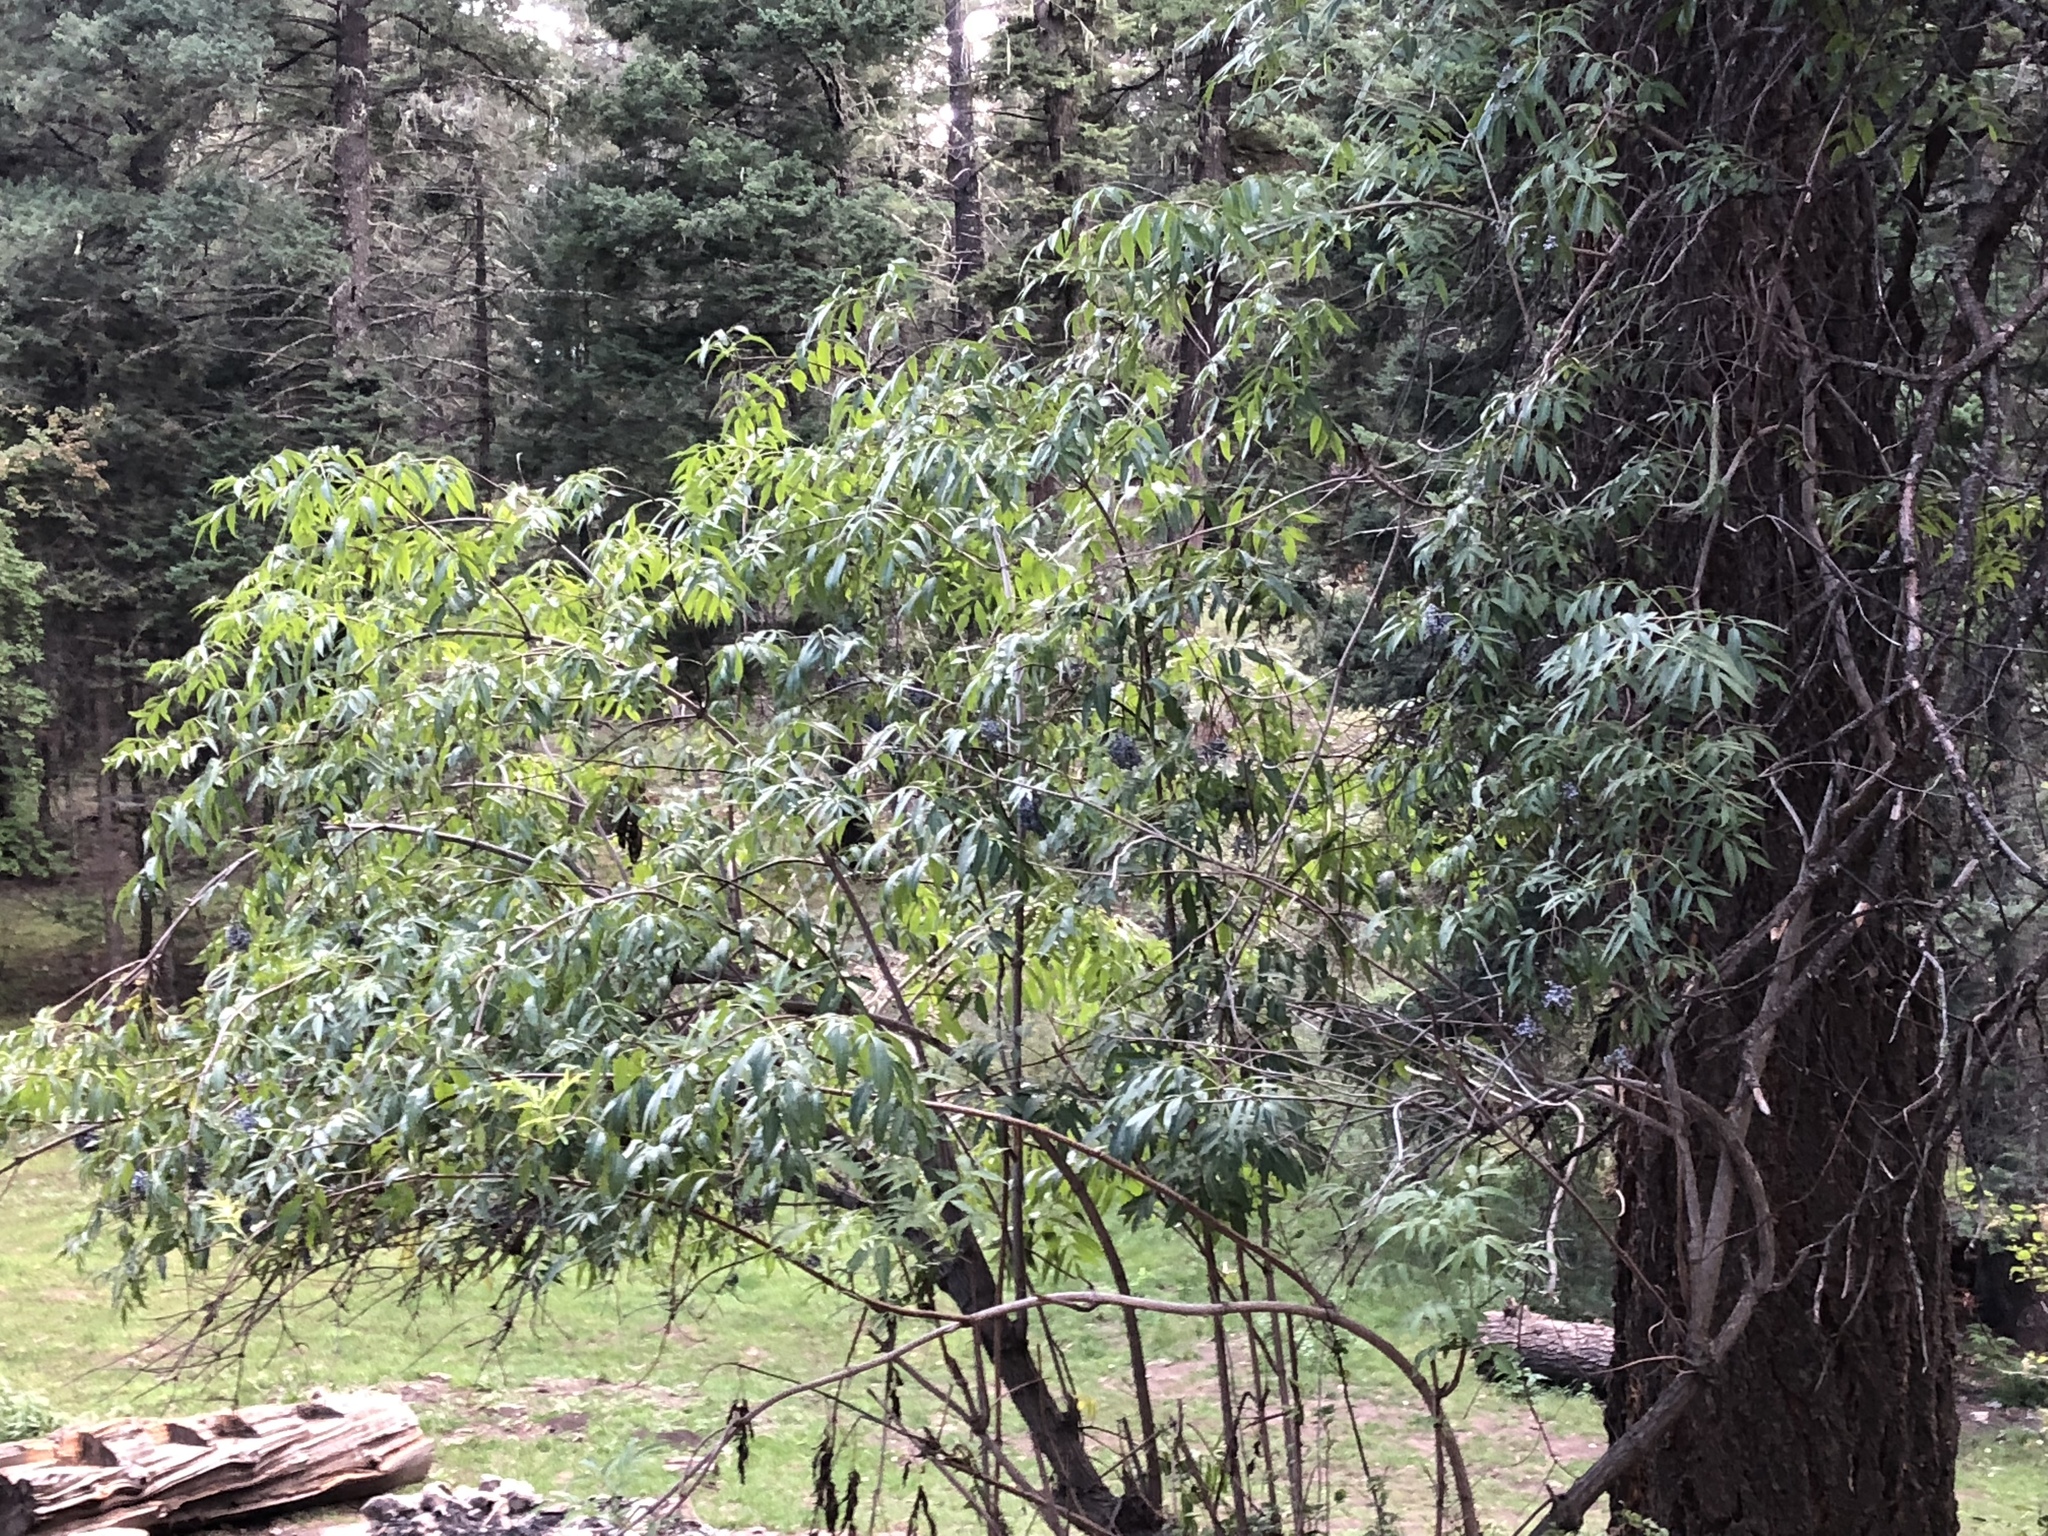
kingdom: Plantae
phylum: Tracheophyta
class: Magnoliopsida
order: Dipsacales
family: Viburnaceae
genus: Sambucus
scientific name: Sambucus cerulea
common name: Blue elder
